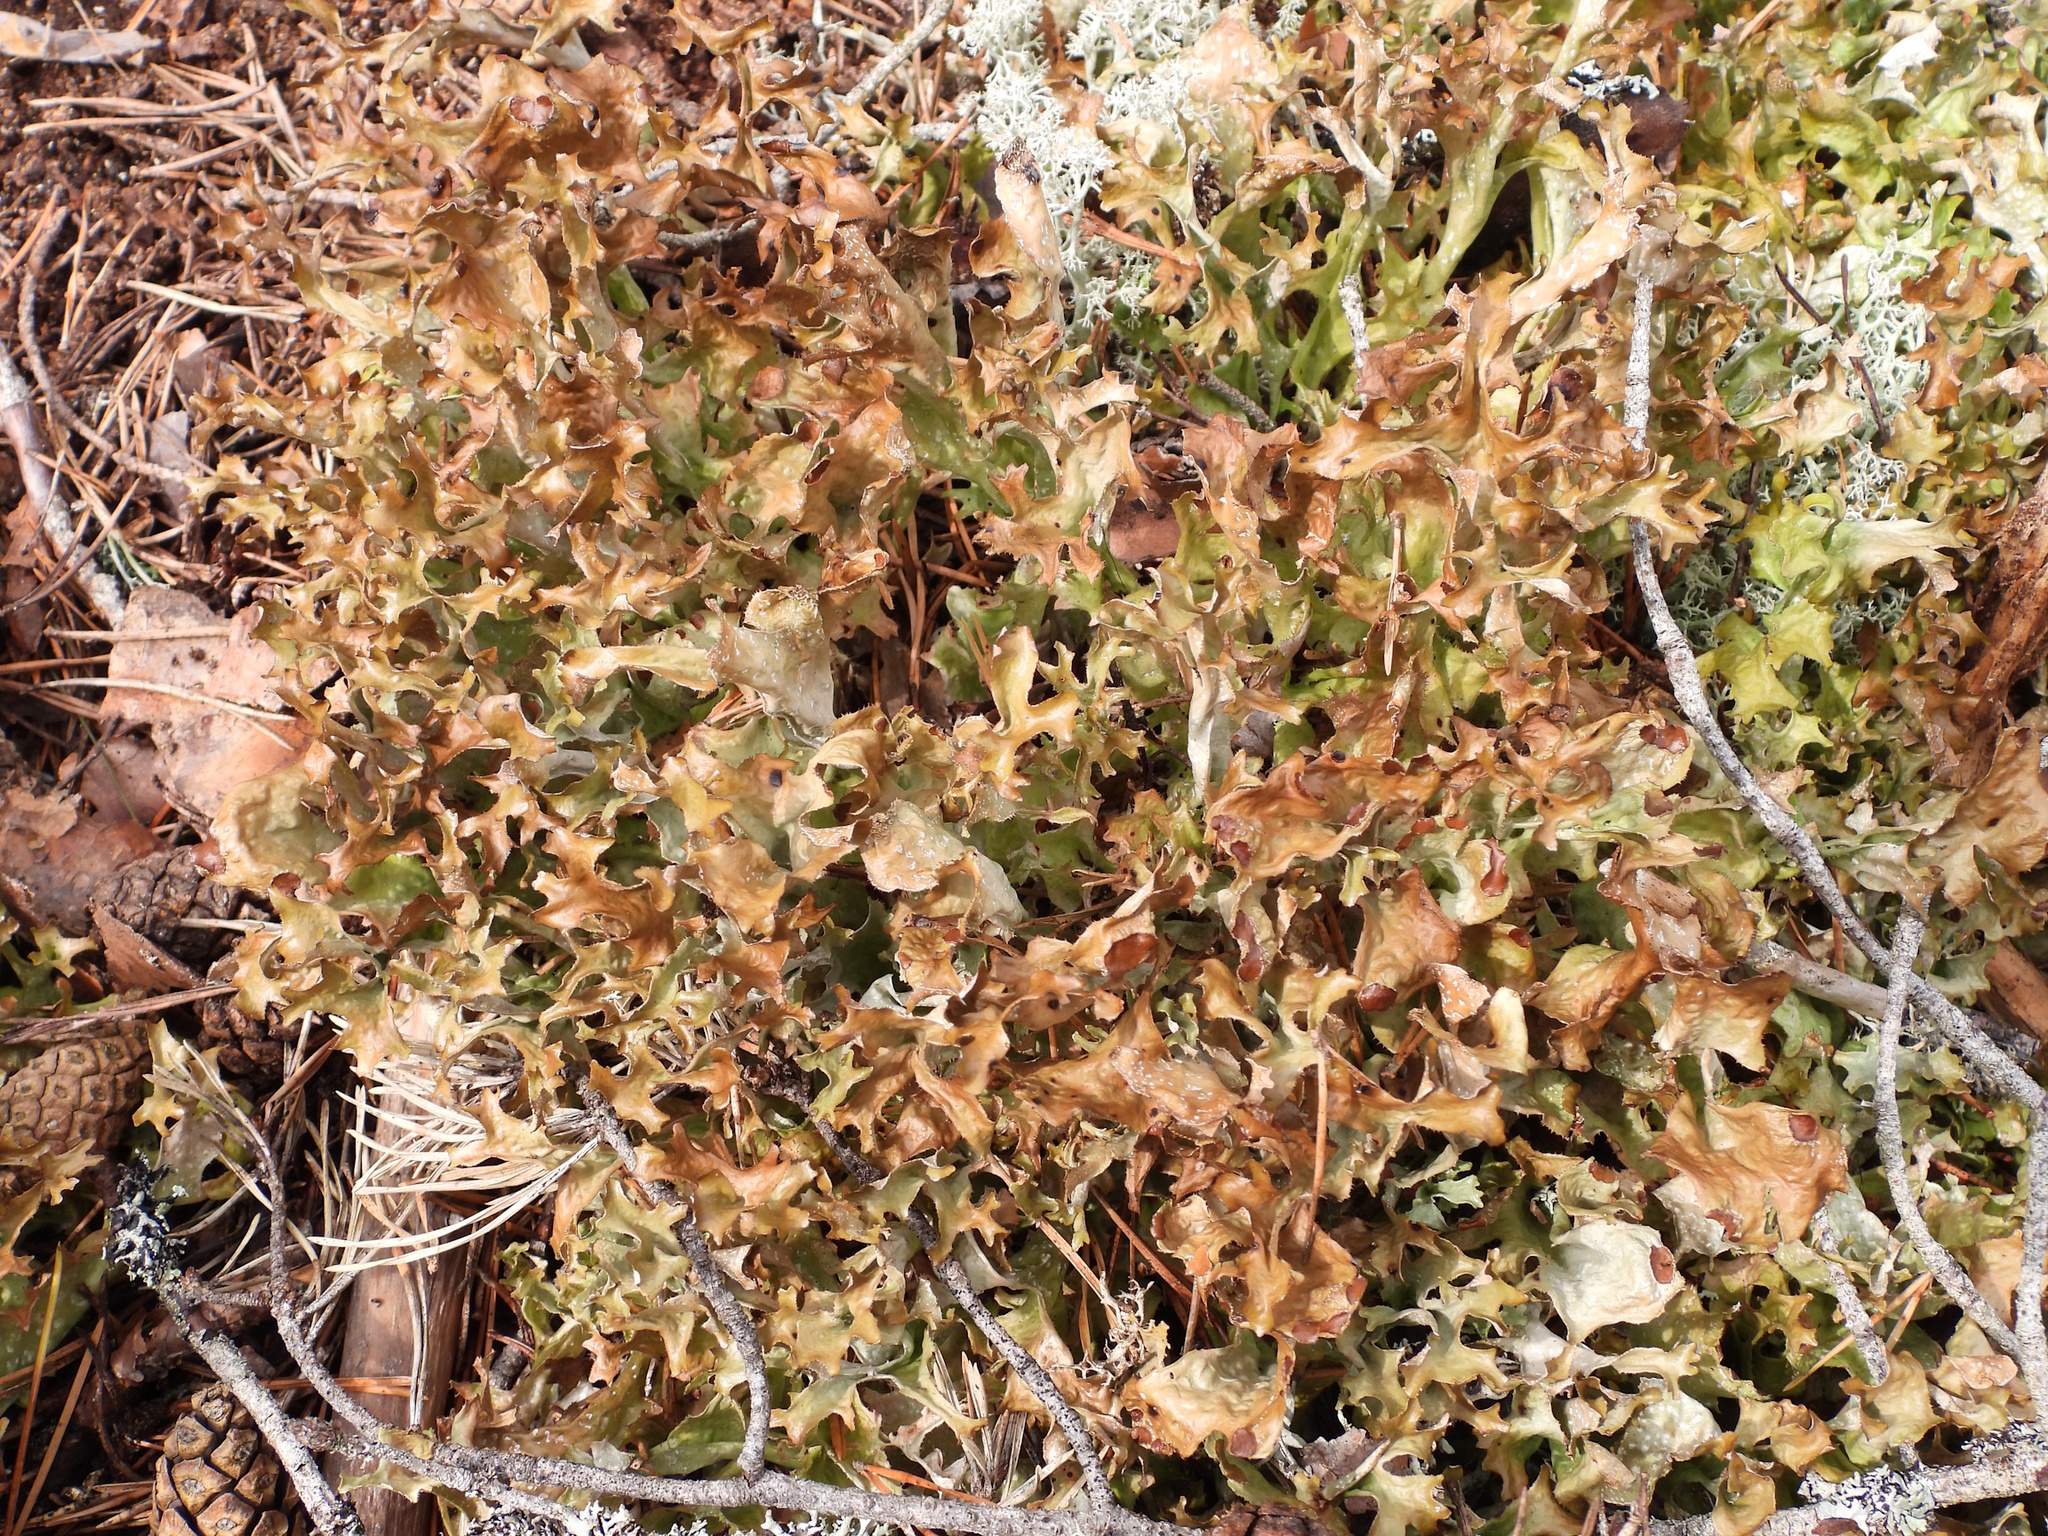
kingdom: Fungi
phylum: Ascomycota
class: Lecanoromycetes
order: Lecanorales
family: Parmeliaceae
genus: Cetraria
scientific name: Cetraria islandica
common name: Iceland lichen
